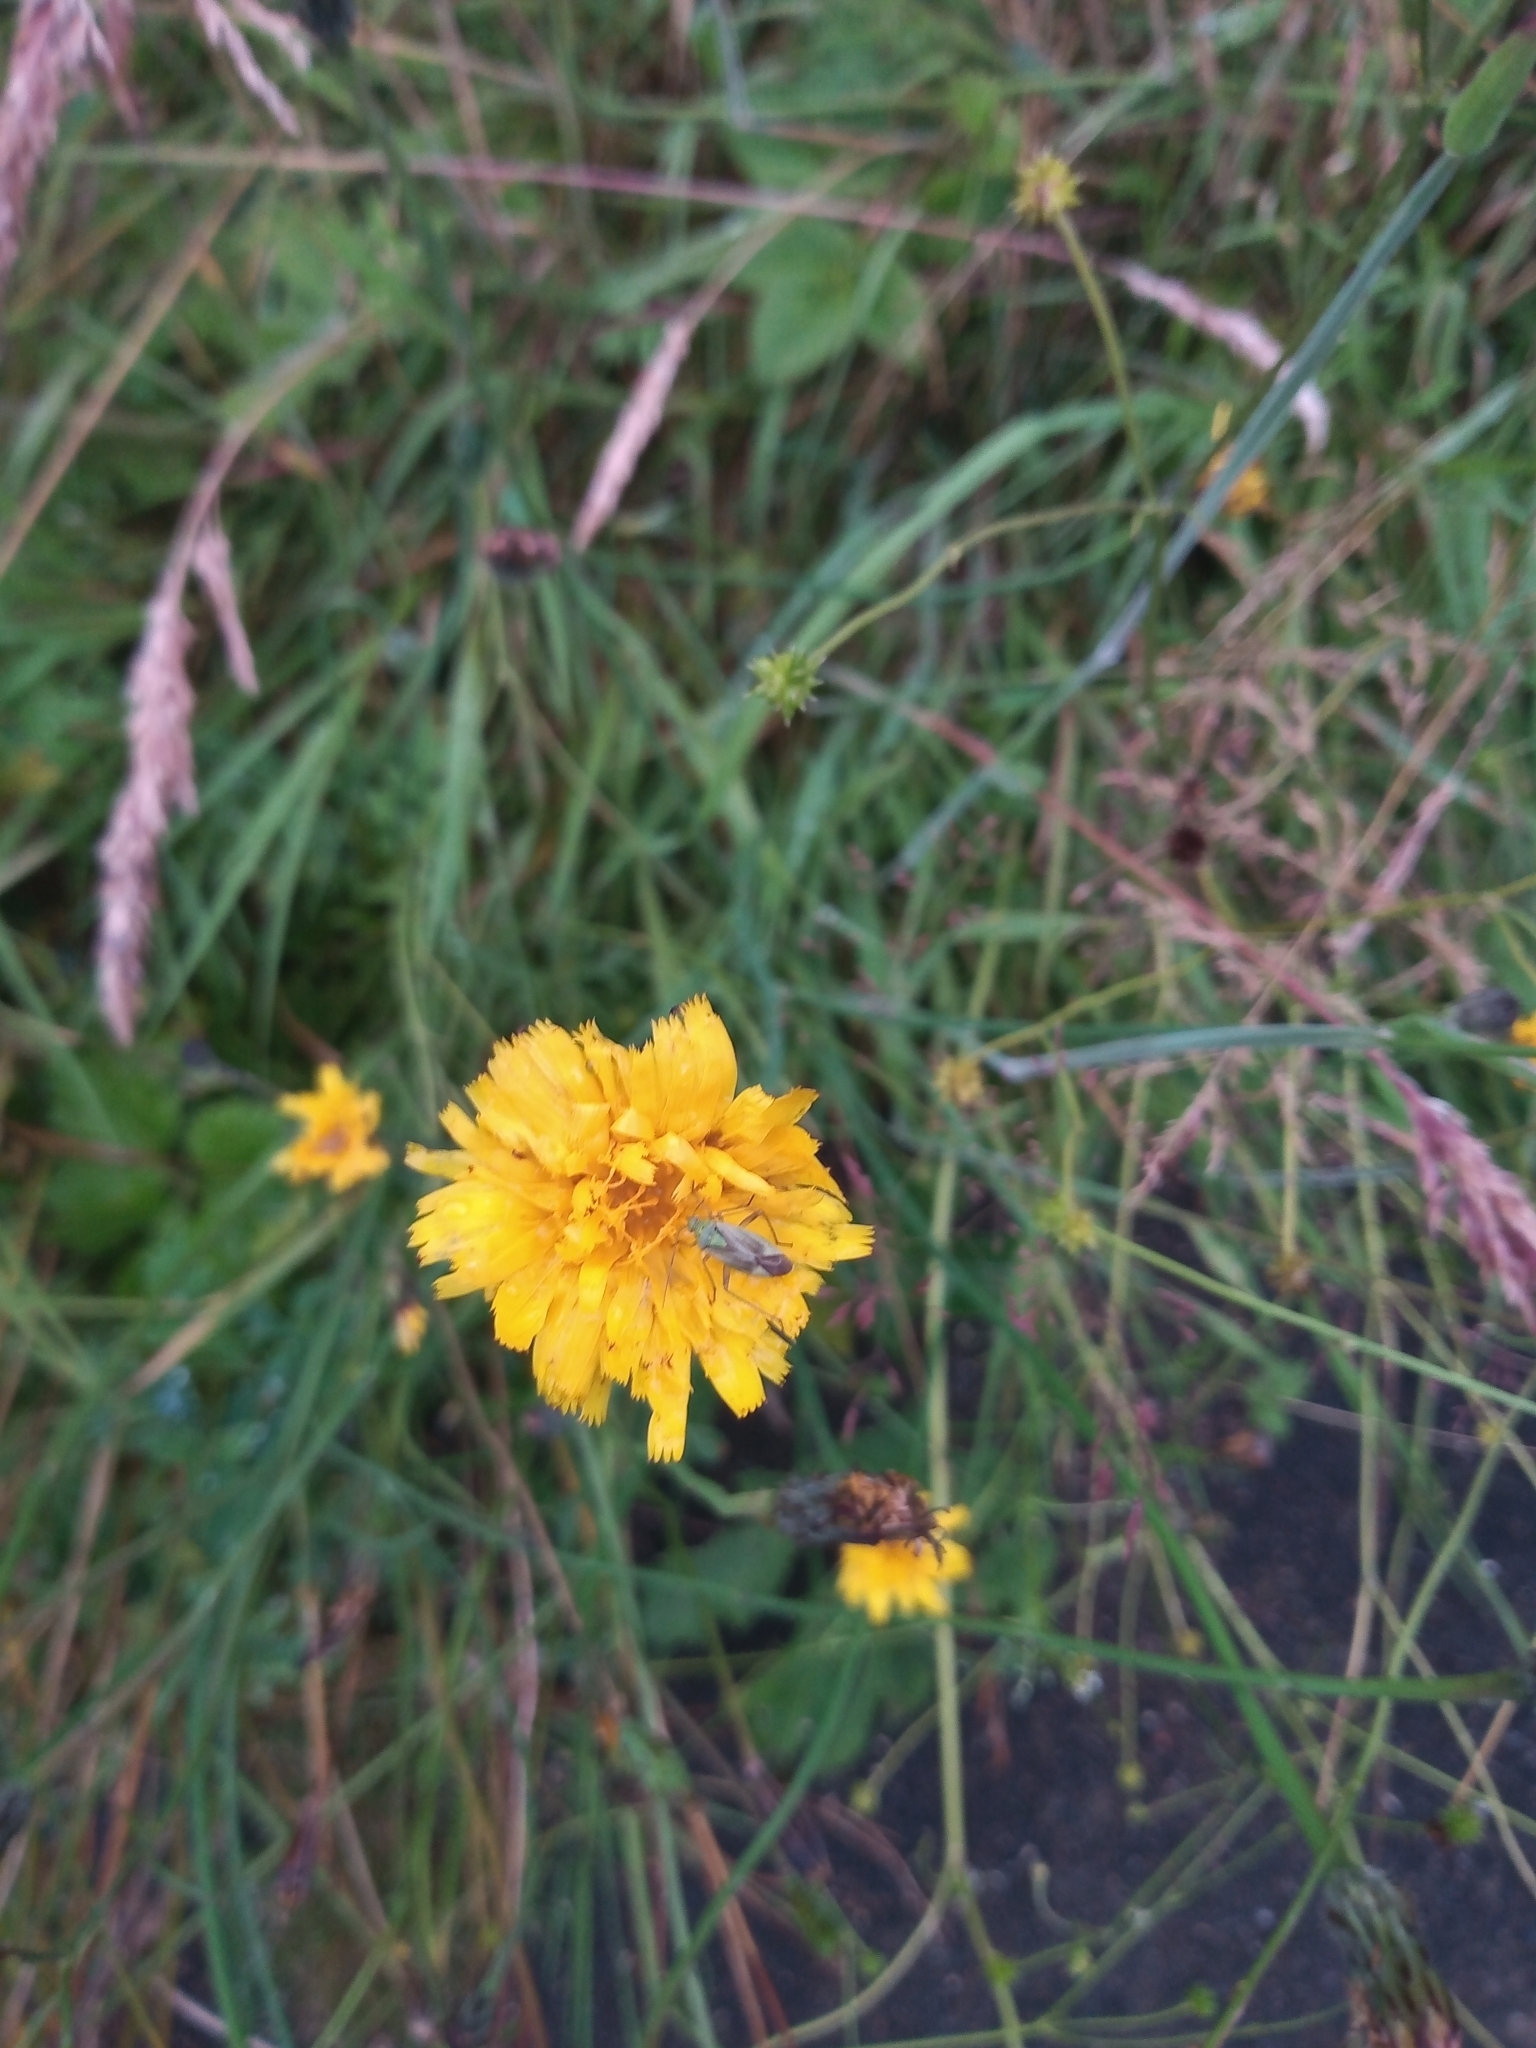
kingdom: Animalia
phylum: Arthropoda
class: Insecta
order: Hemiptera
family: Miridae
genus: Closterotomus
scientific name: Closterotomus norvegicus
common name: Plant bug
